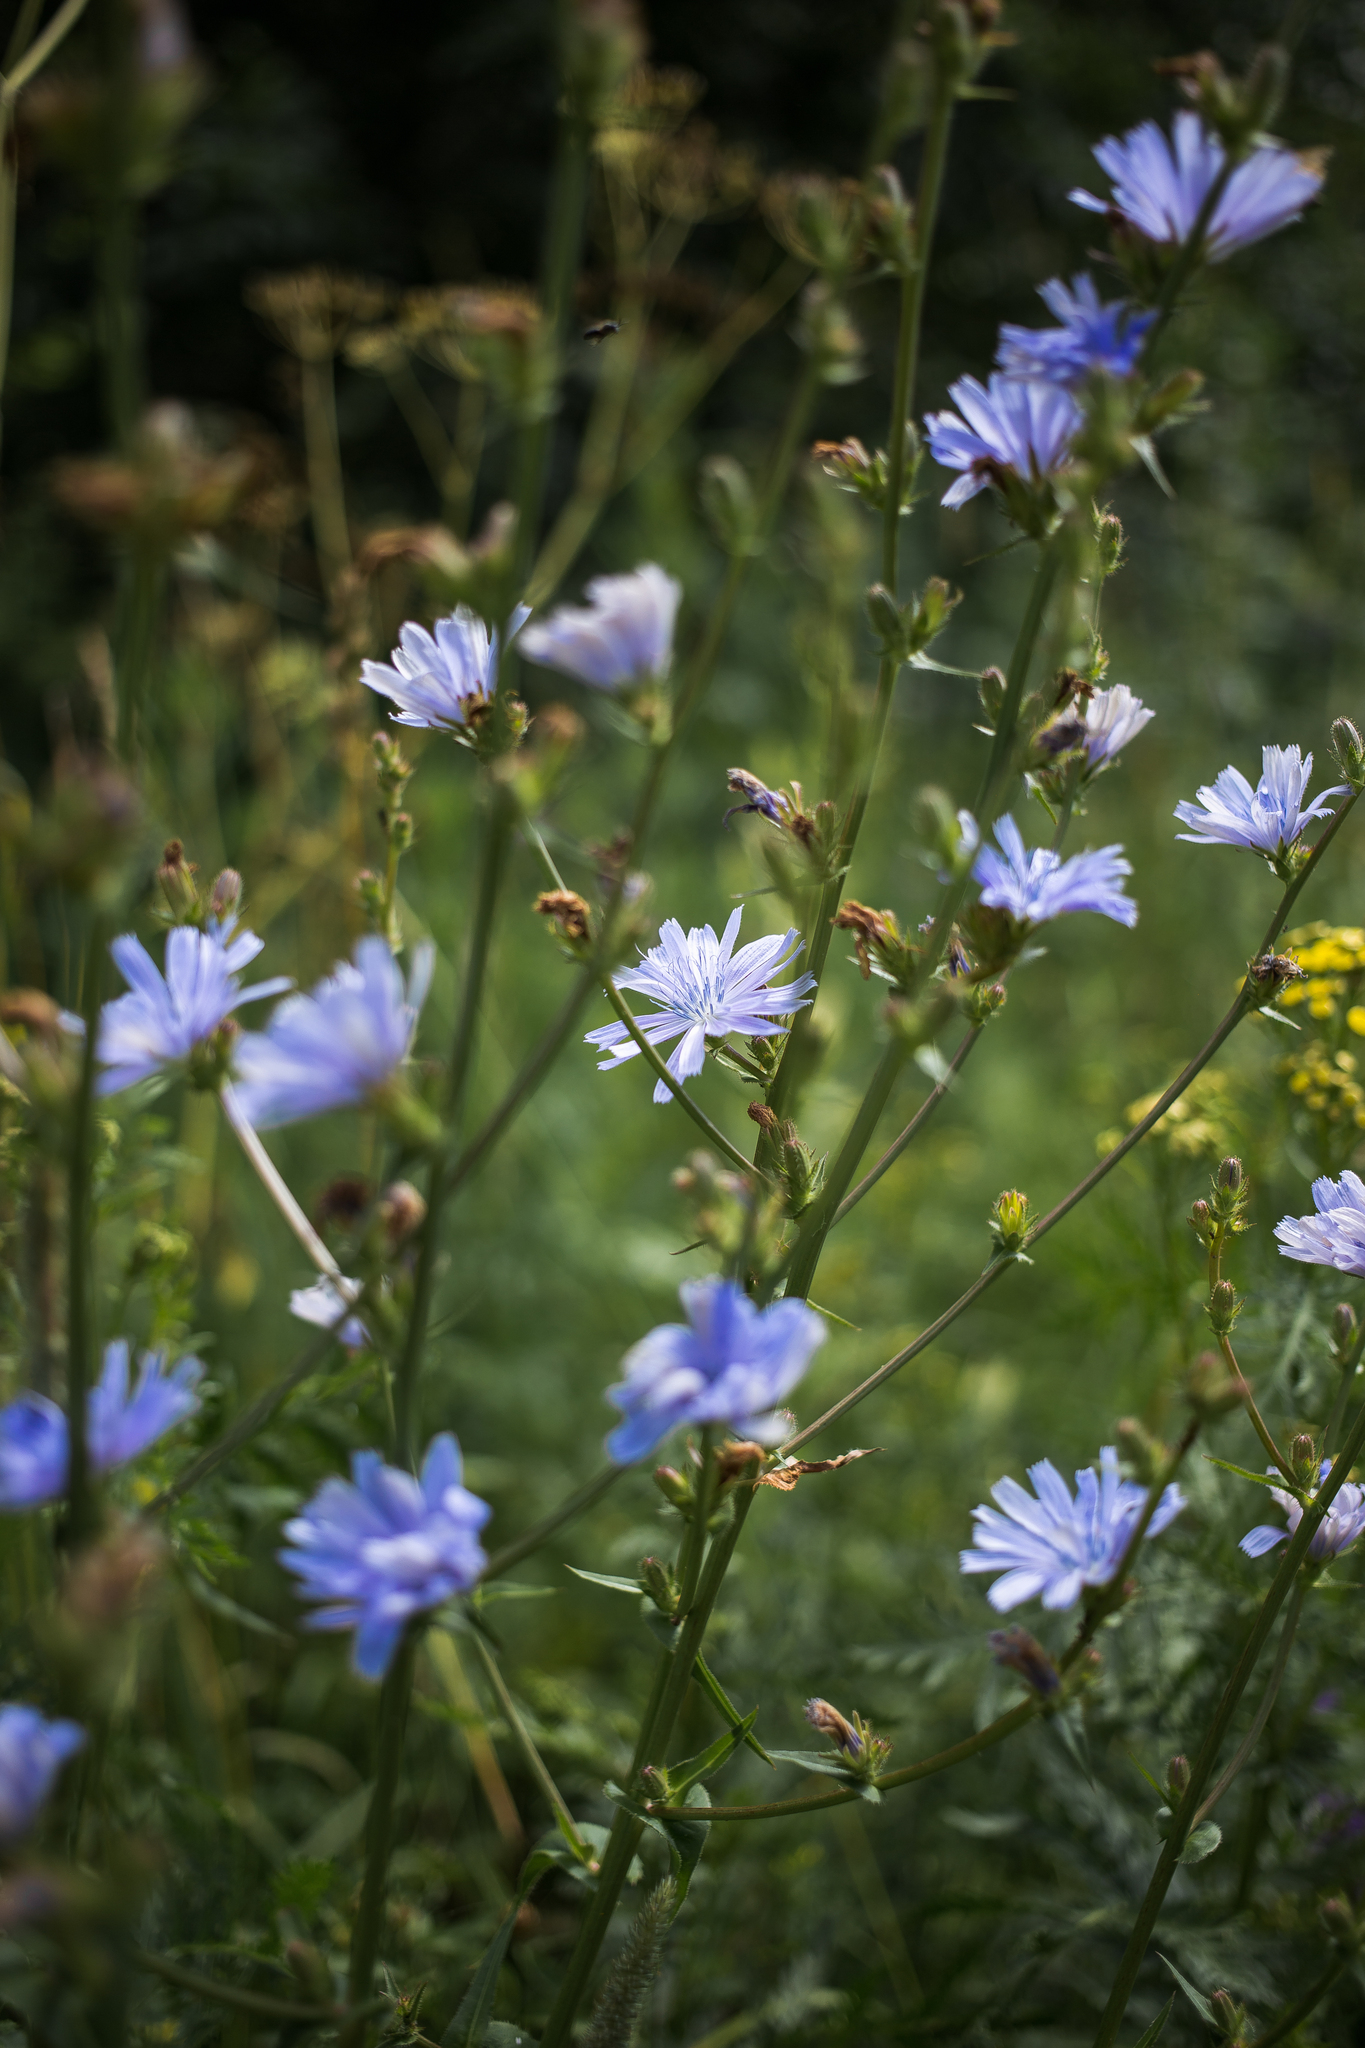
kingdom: Plantae
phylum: Tracheophyta
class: Magnoliopsida
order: Asterales
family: Asteraceae
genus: Cichorium
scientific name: Cichorium intybus
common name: Chicory
